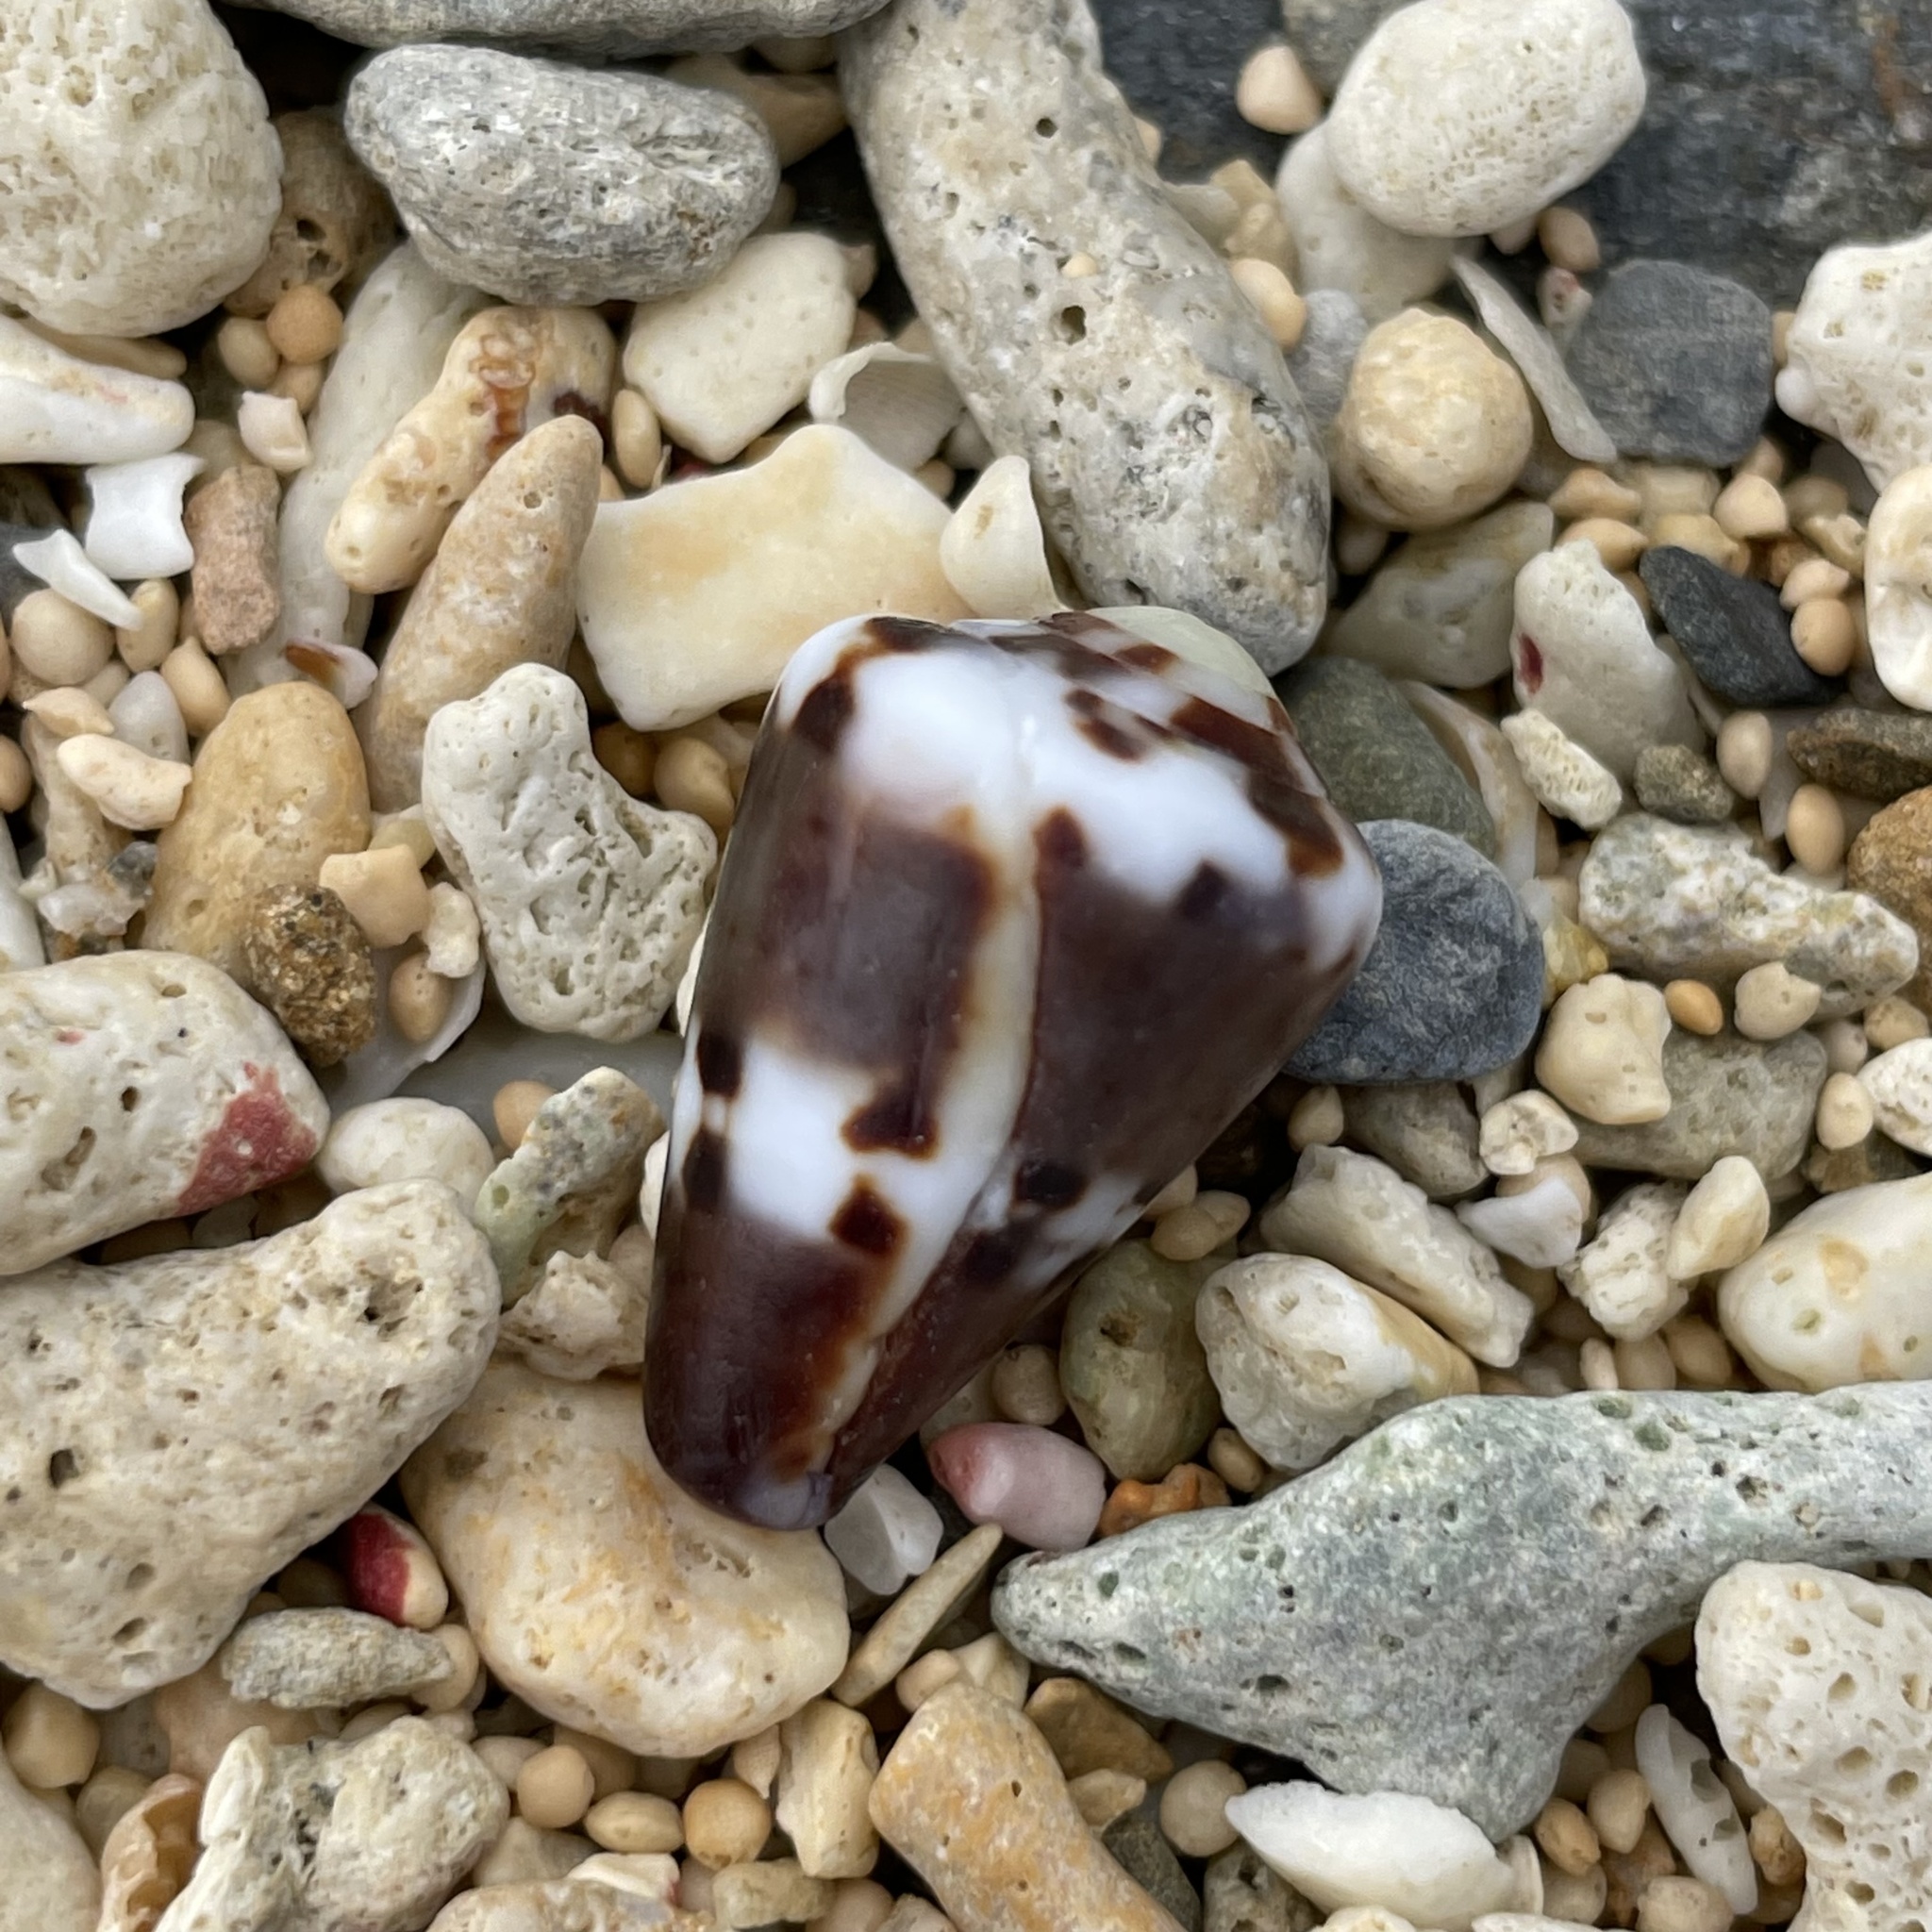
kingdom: Animalia
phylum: Mollusca
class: Gastropoda
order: Neogastropoda
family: Conidae
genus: Conus
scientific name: Conus capitaneus
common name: Captain cone
